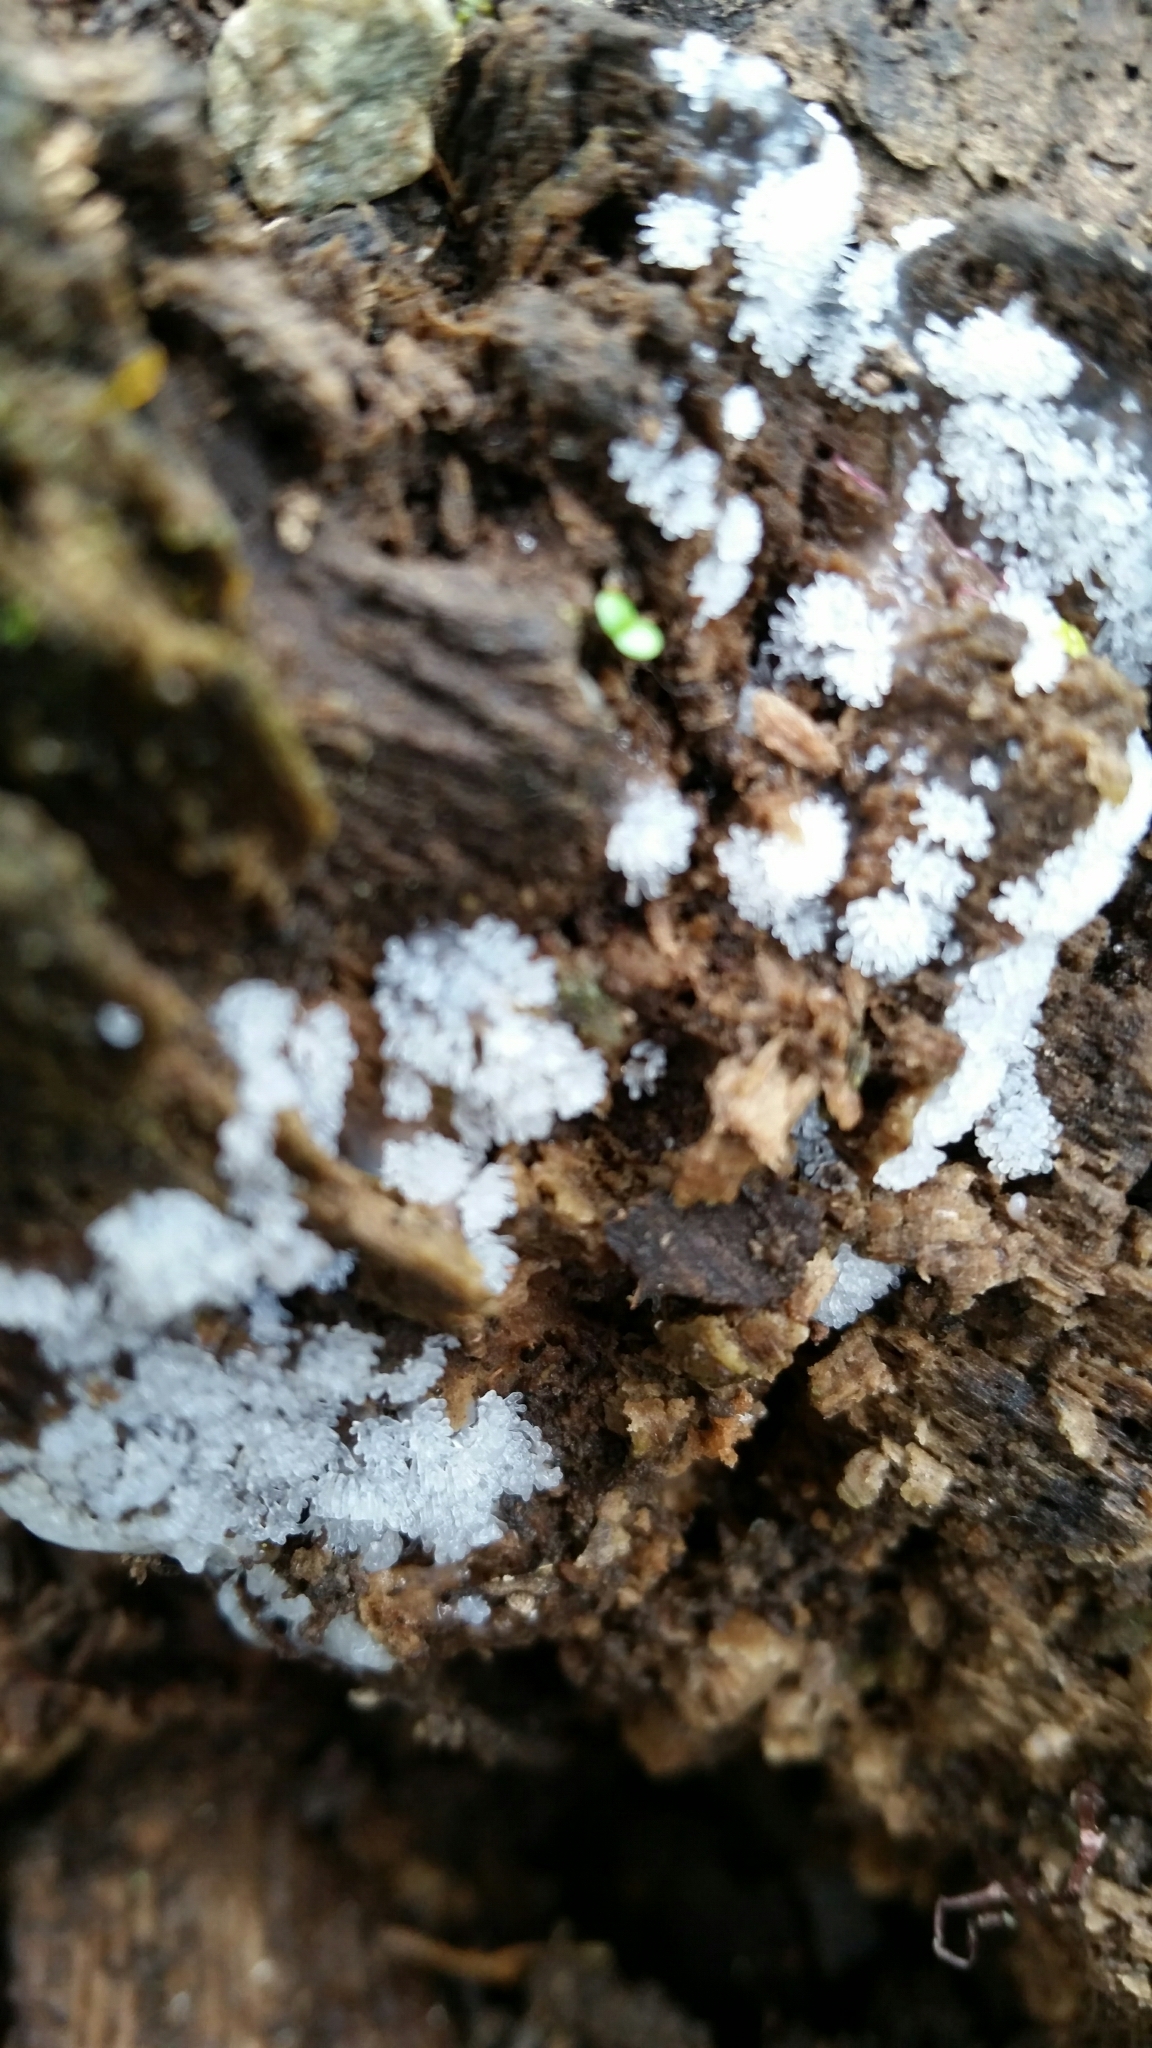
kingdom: Protozoa
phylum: Mycetozoa
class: Protosteliomycetes
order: Ceratiomyxales
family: Ceratiomyxaceae
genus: Ceratiomyxa
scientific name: Ceratiomyxa fruticulosa
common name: Honeycomb coral slime mold
